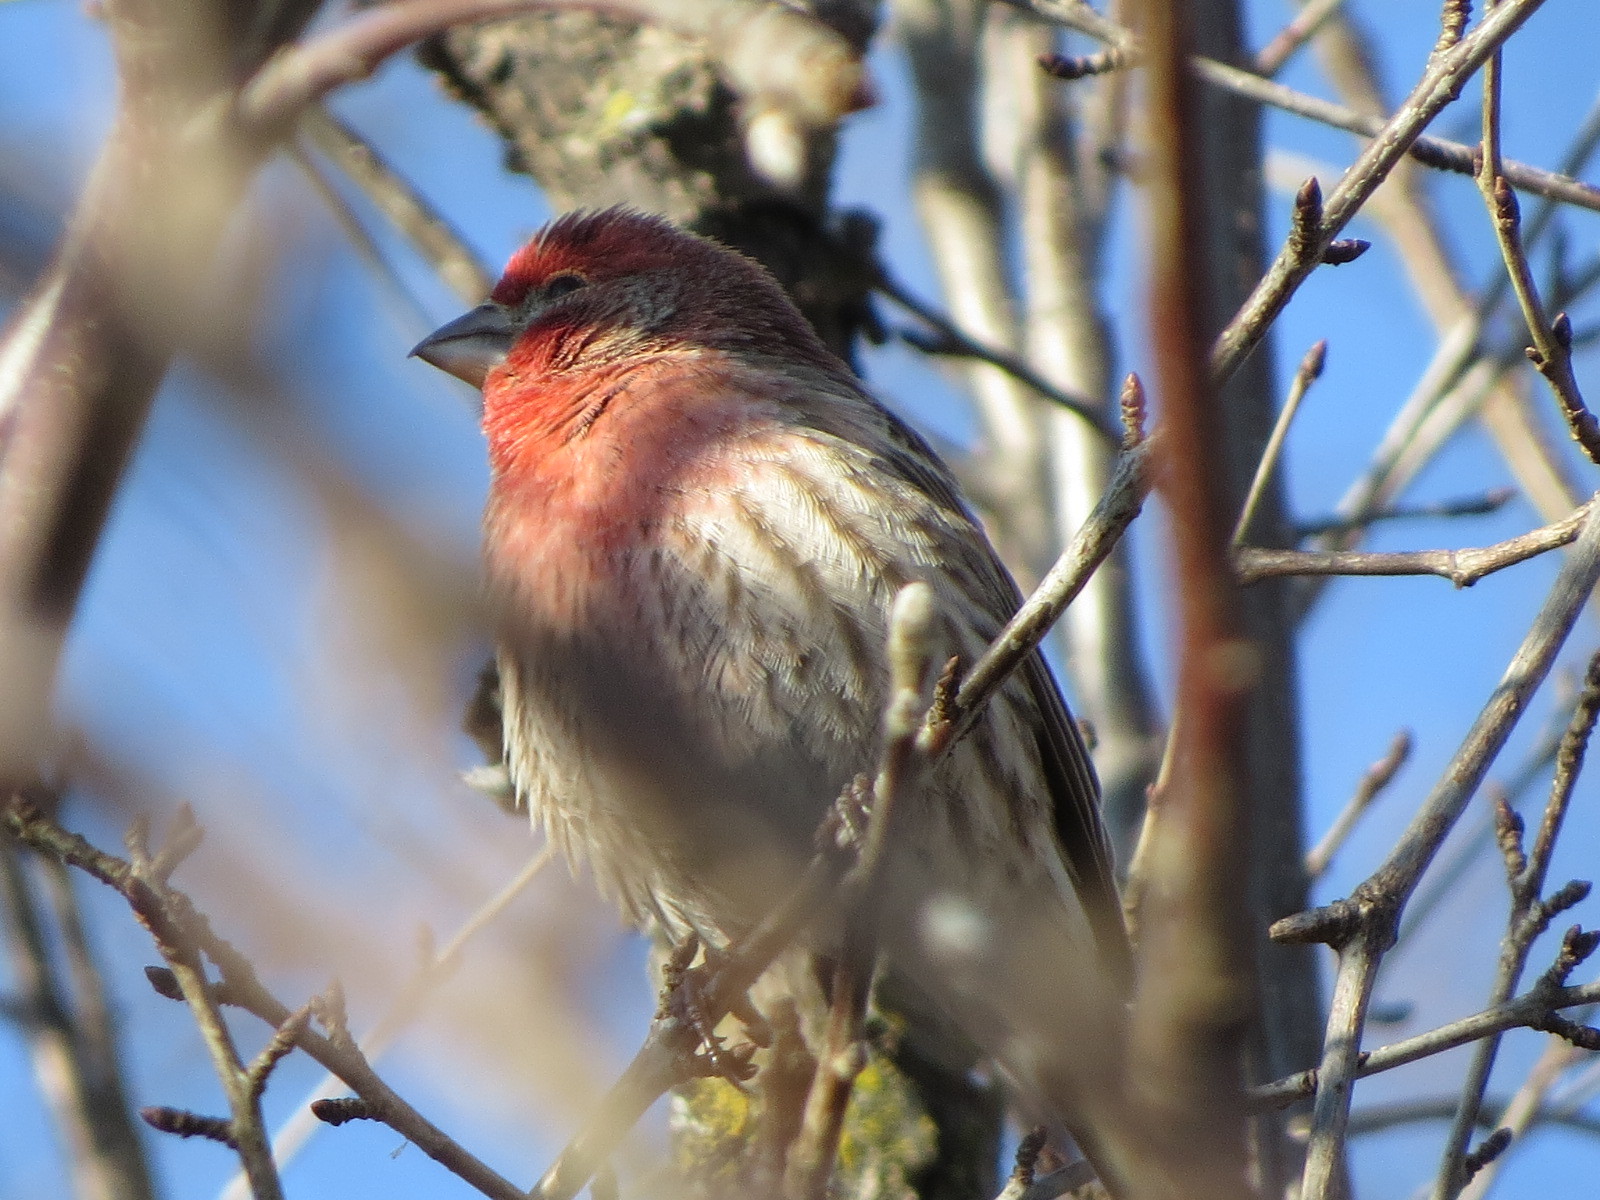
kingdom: Animalia
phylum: Chordata
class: Aves
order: Passeriformes
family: Fringillidae
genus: Haemorhous
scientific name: Haemorhous mexicanus
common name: House finch
